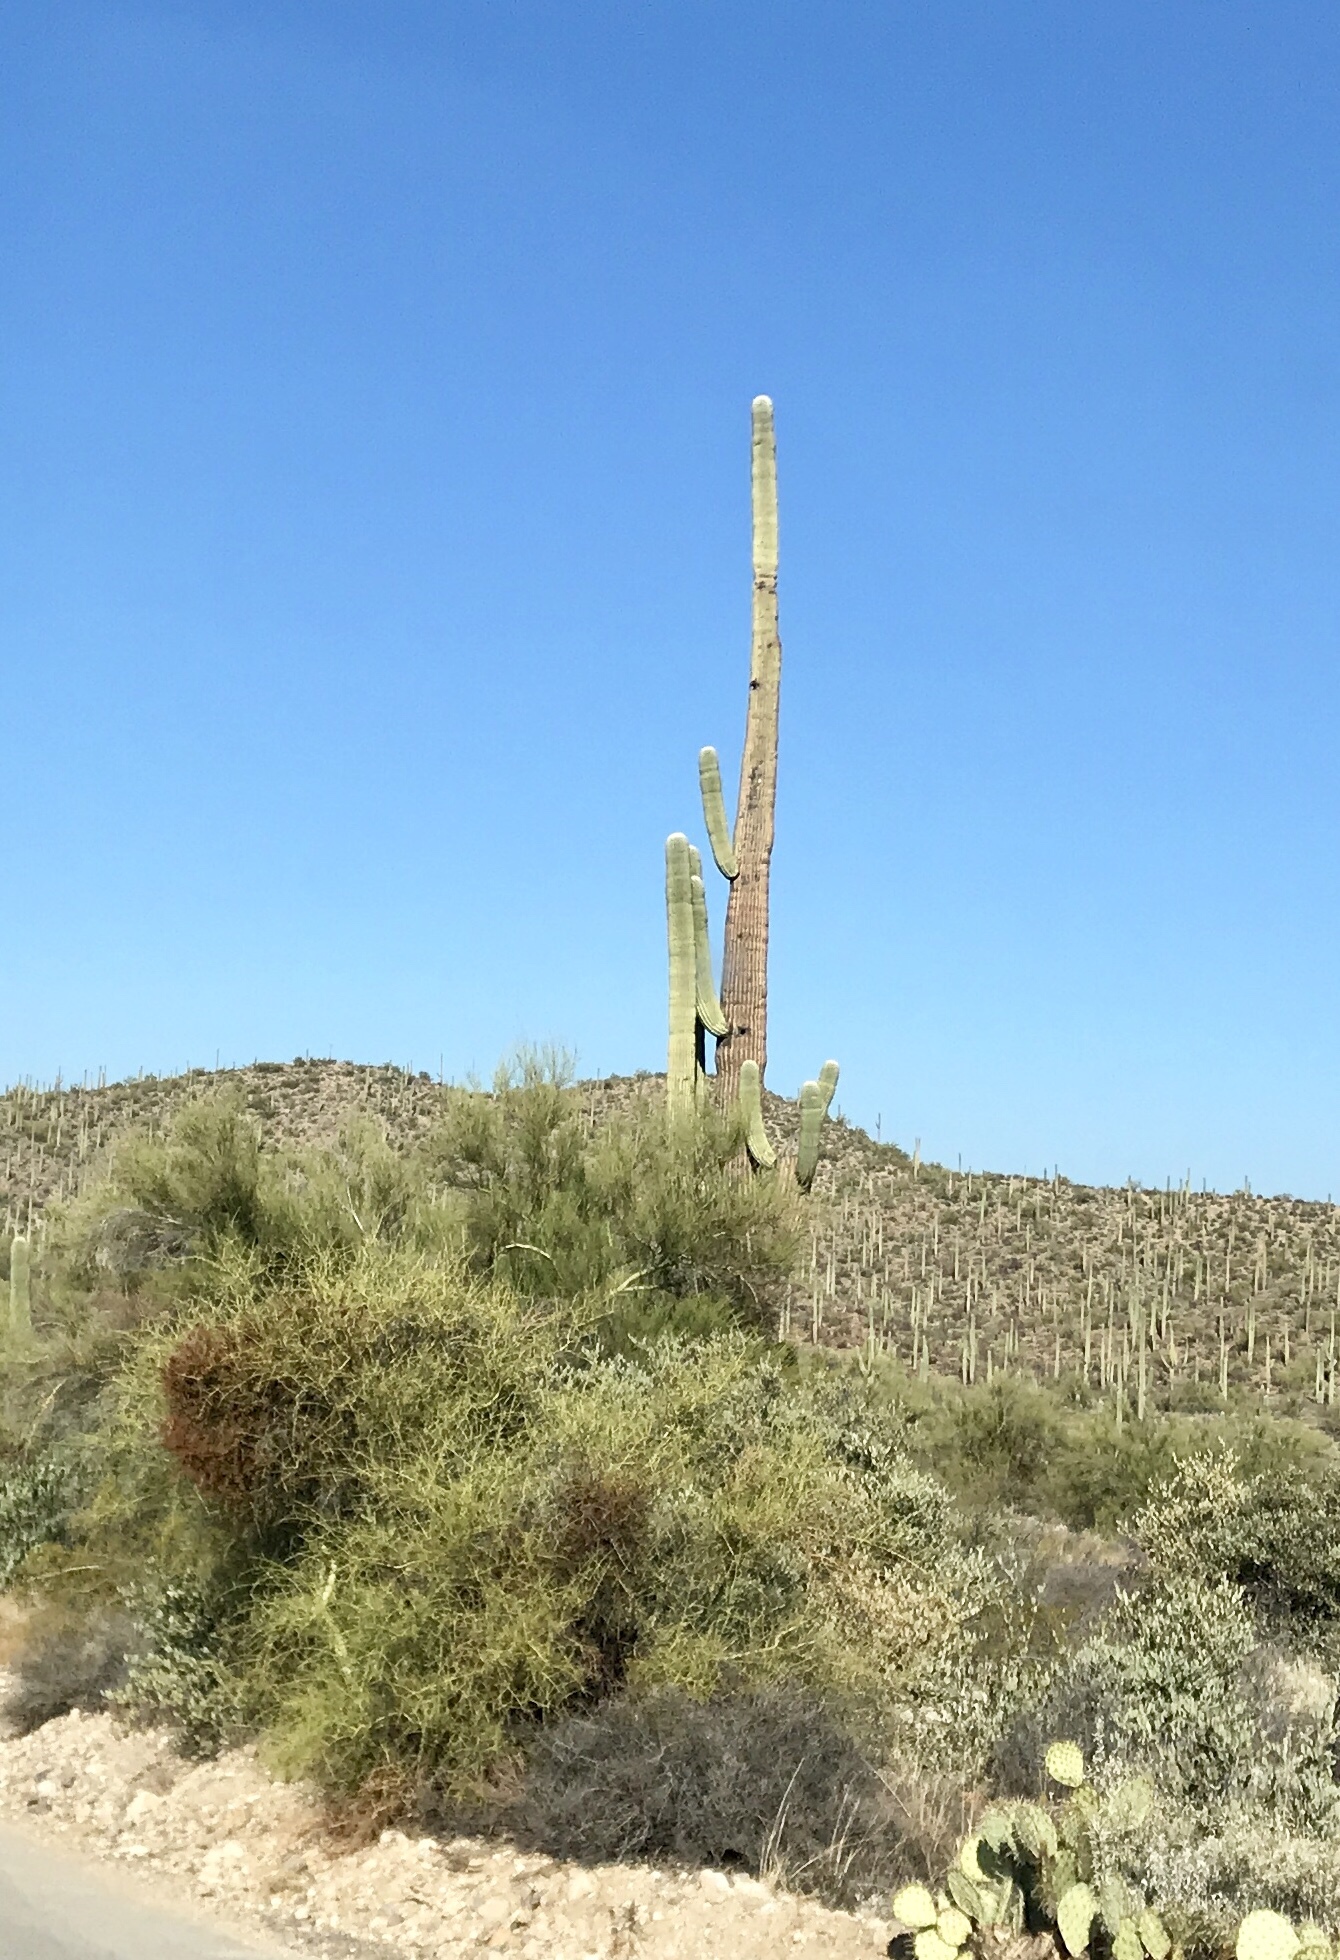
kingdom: Plantae
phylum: Tracheophyta
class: Magnoliopsida
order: Caryophyllales
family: Cactaceae
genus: Carnegiea
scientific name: Carnegiea gigantea
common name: Saguaro
